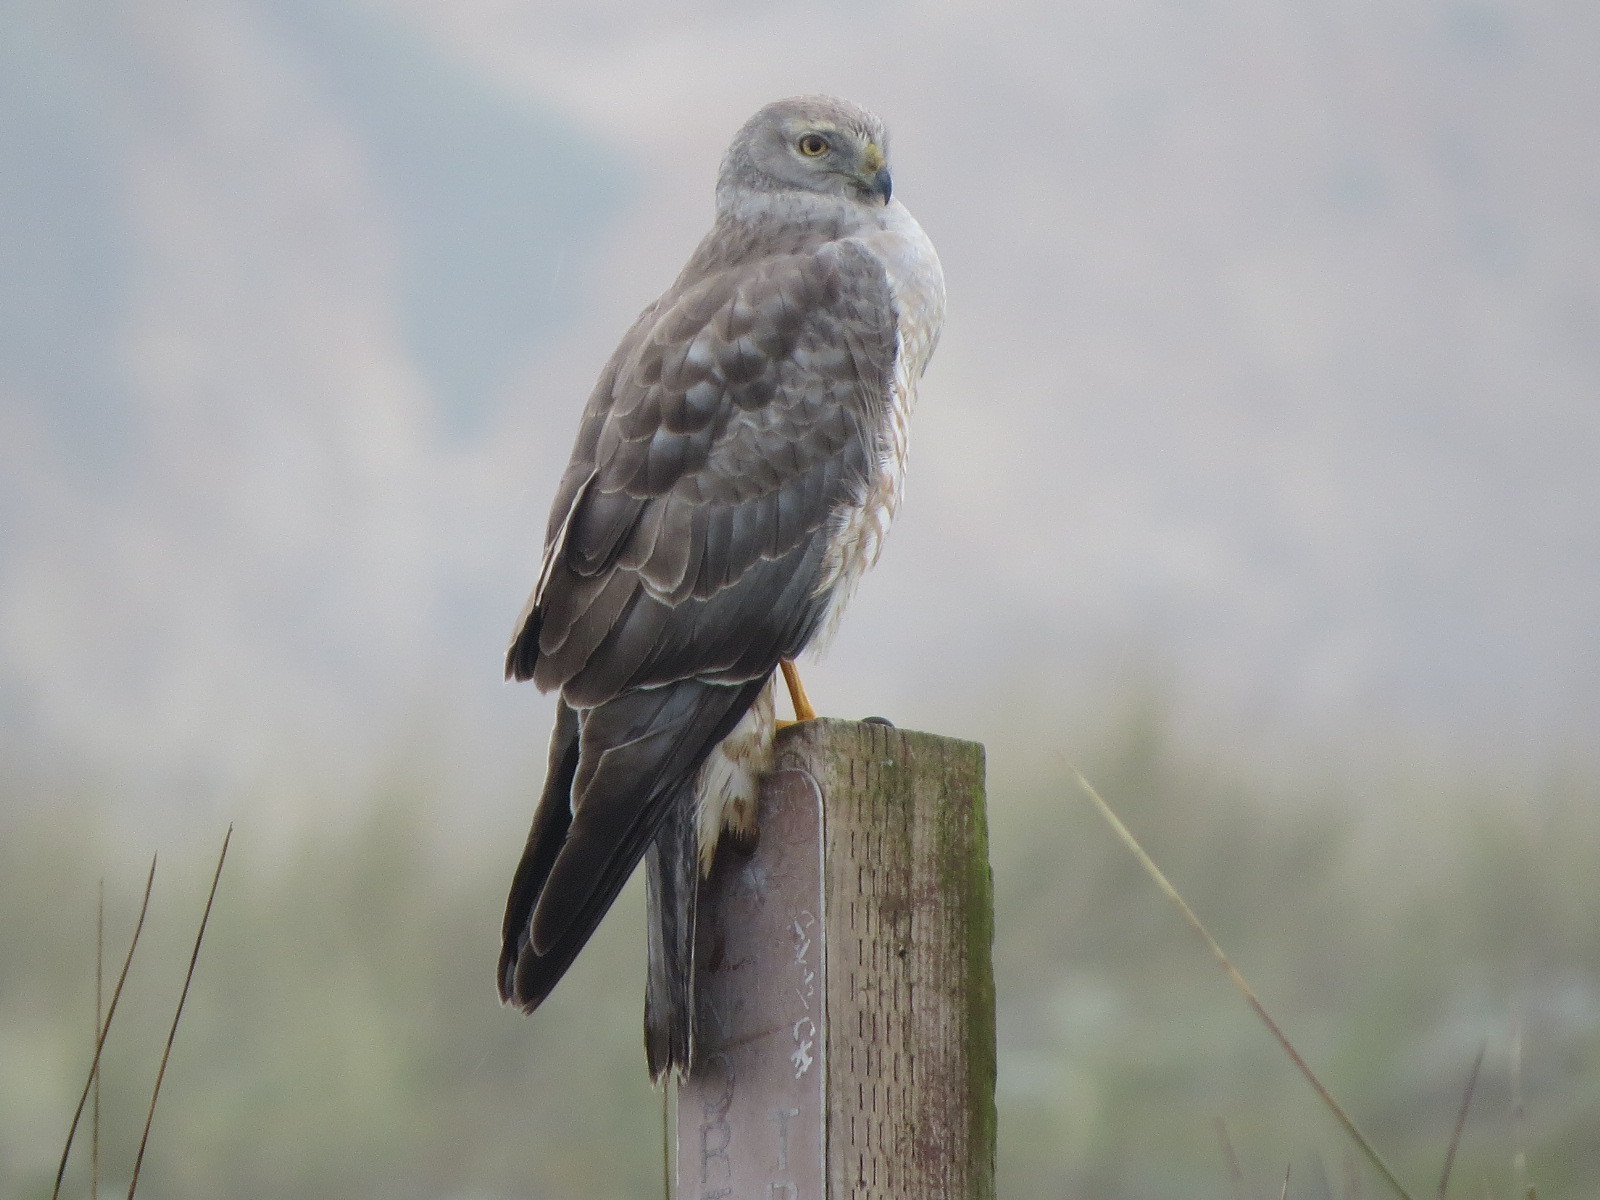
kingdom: Animalia
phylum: Chordata
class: Aves
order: Accipitriformes
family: Accipitridae
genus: Circus
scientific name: Circus cyaneus
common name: Hen harrier
